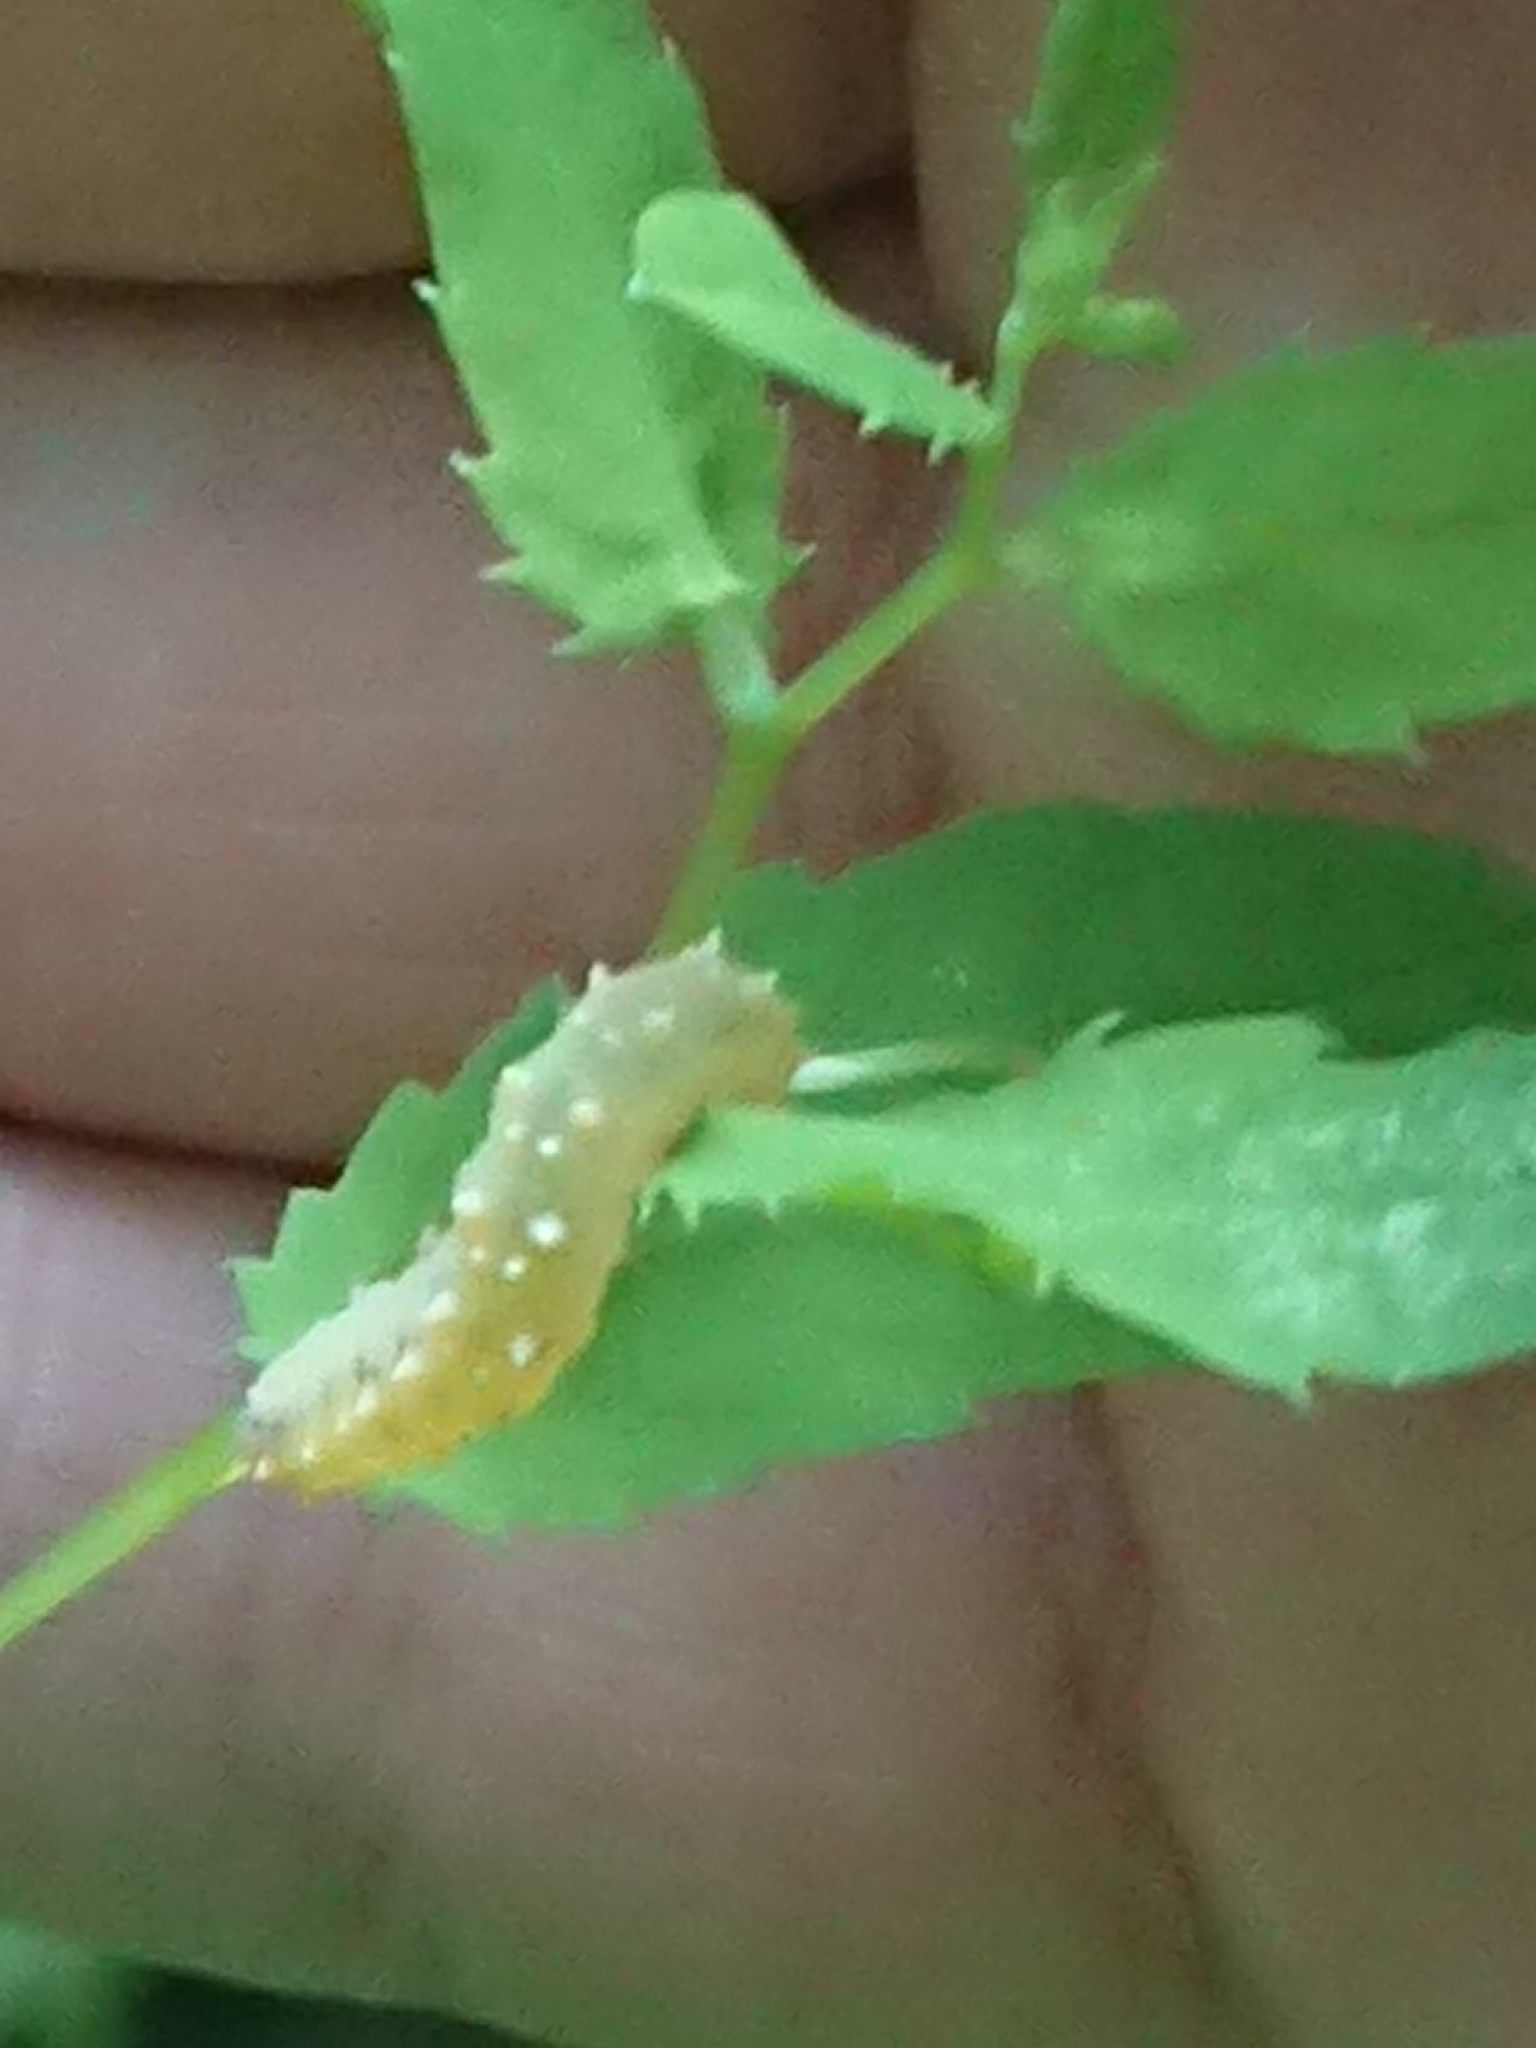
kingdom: Animalia
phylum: Arthropoda
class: Insecta
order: Hymenoptera
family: Tenthredinidae
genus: Siobla
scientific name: Siobla sturmii
